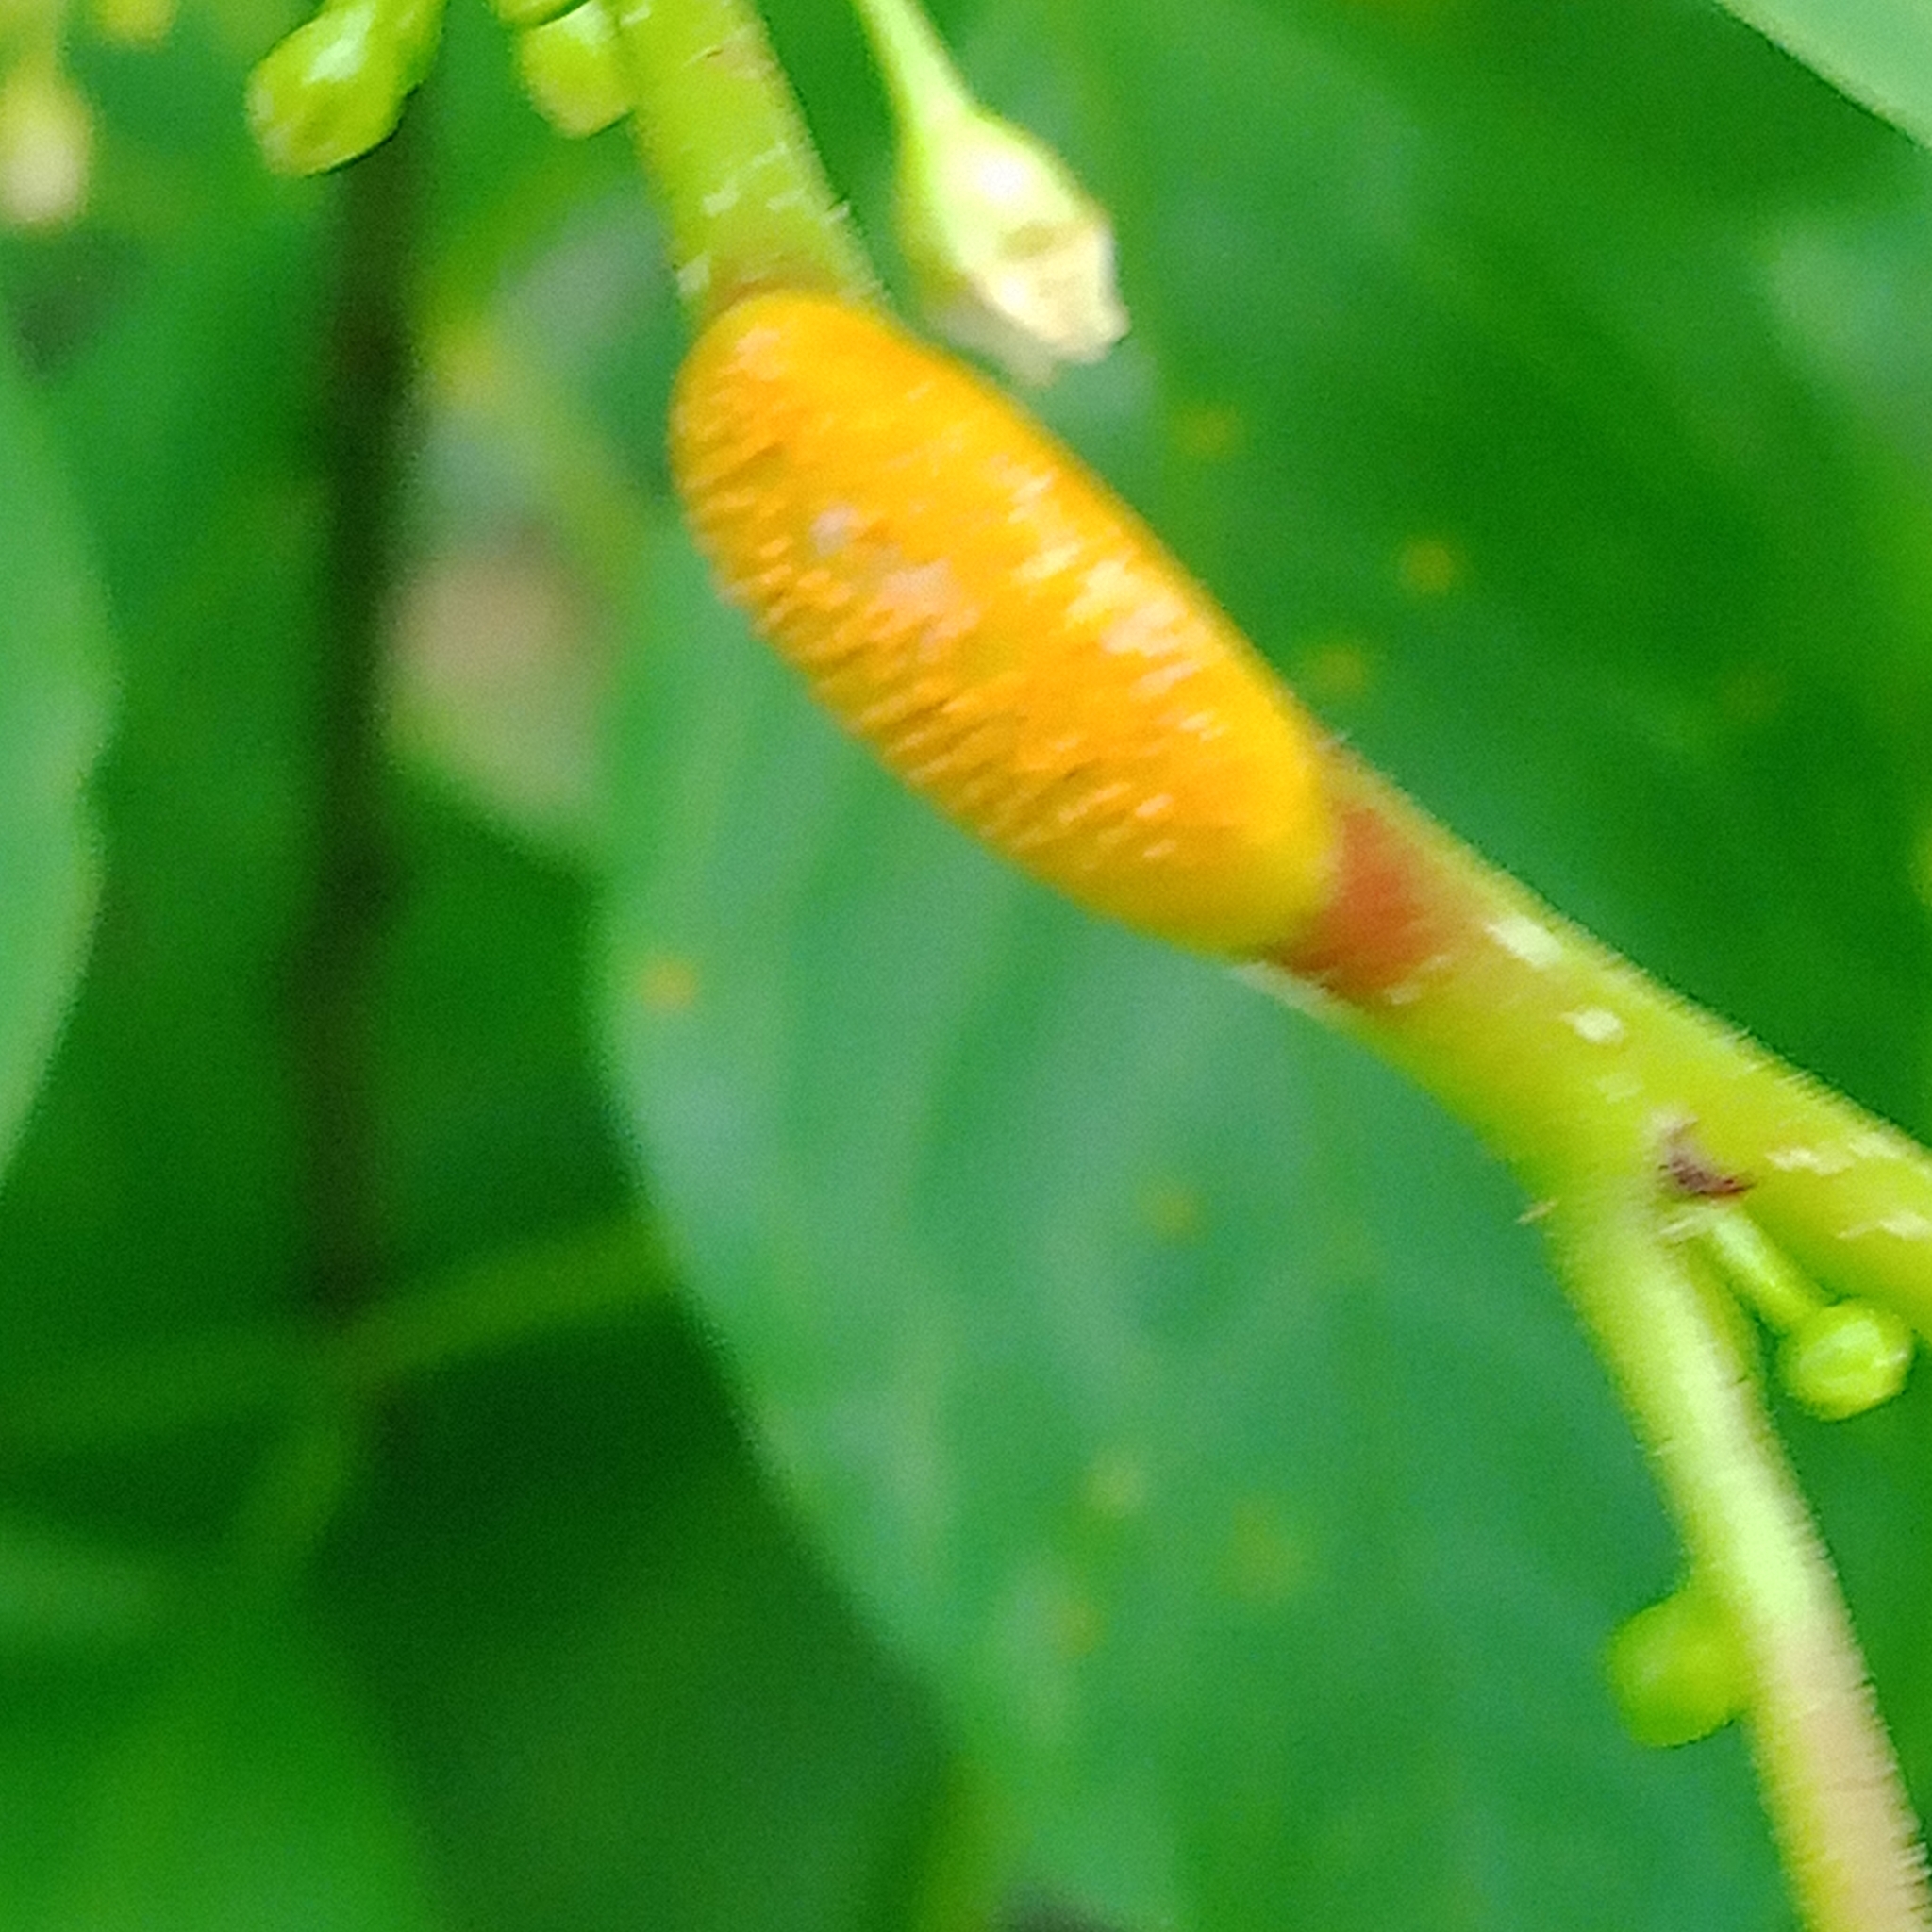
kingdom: Fungi
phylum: Basidiomycota
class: Pucciniomycetes
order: Pucciniales
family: Pucciniaceae
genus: Puccinia
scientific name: Puccinia coronata
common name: Crown rust
